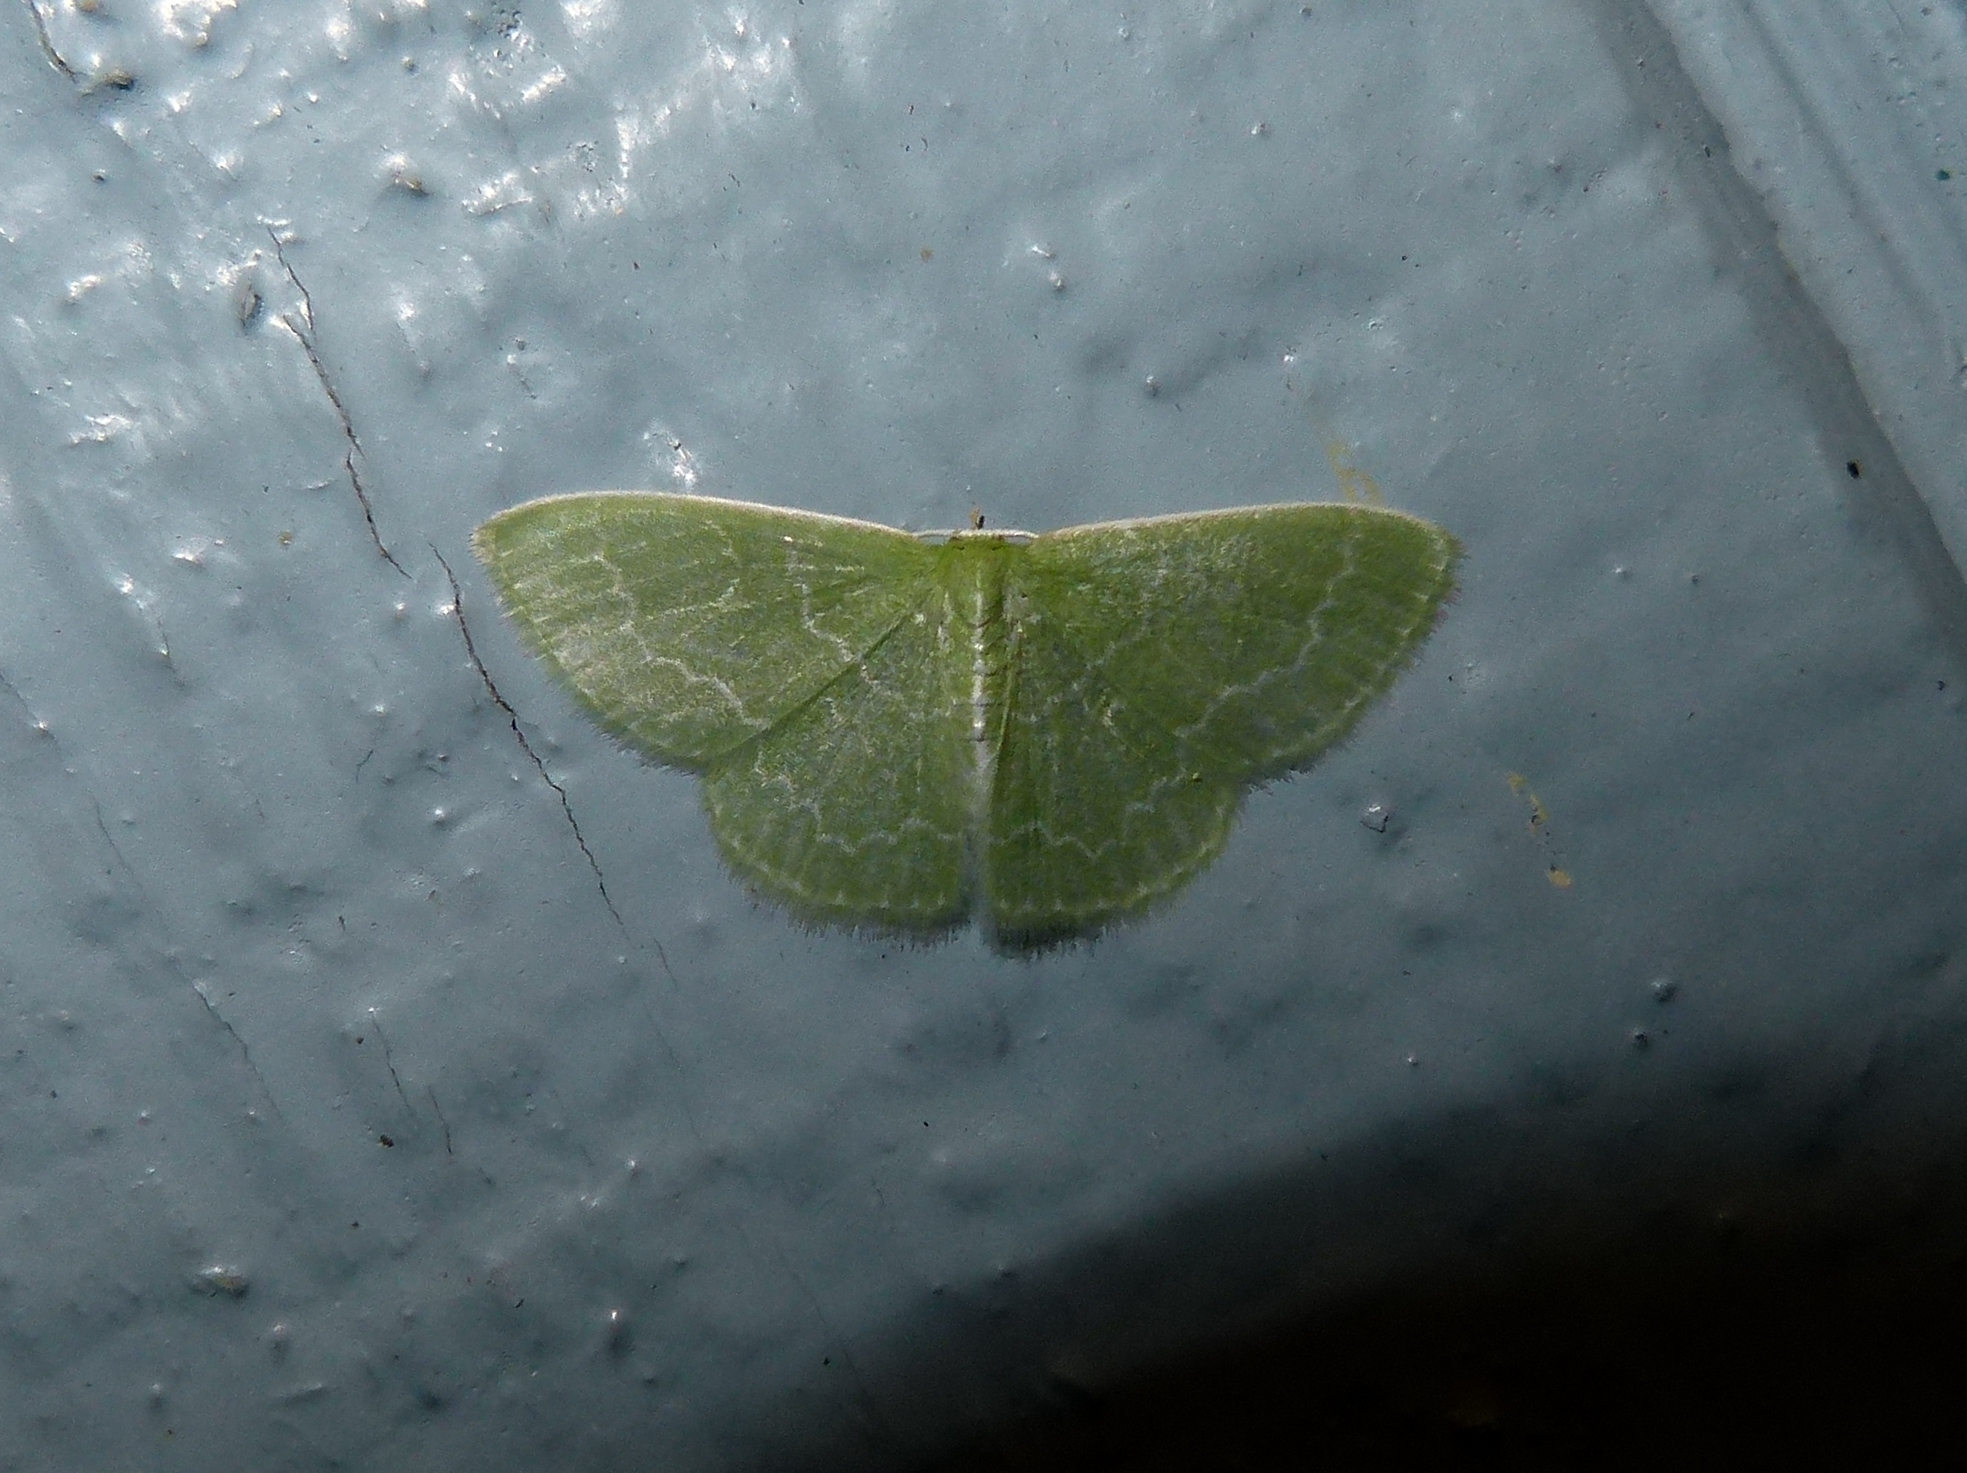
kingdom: Animalia
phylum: Arthropoda
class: Insecta
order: Lepidoptera
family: Geometridae
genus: Synchlora
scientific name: Synchlora frondaria
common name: Southern emerald
